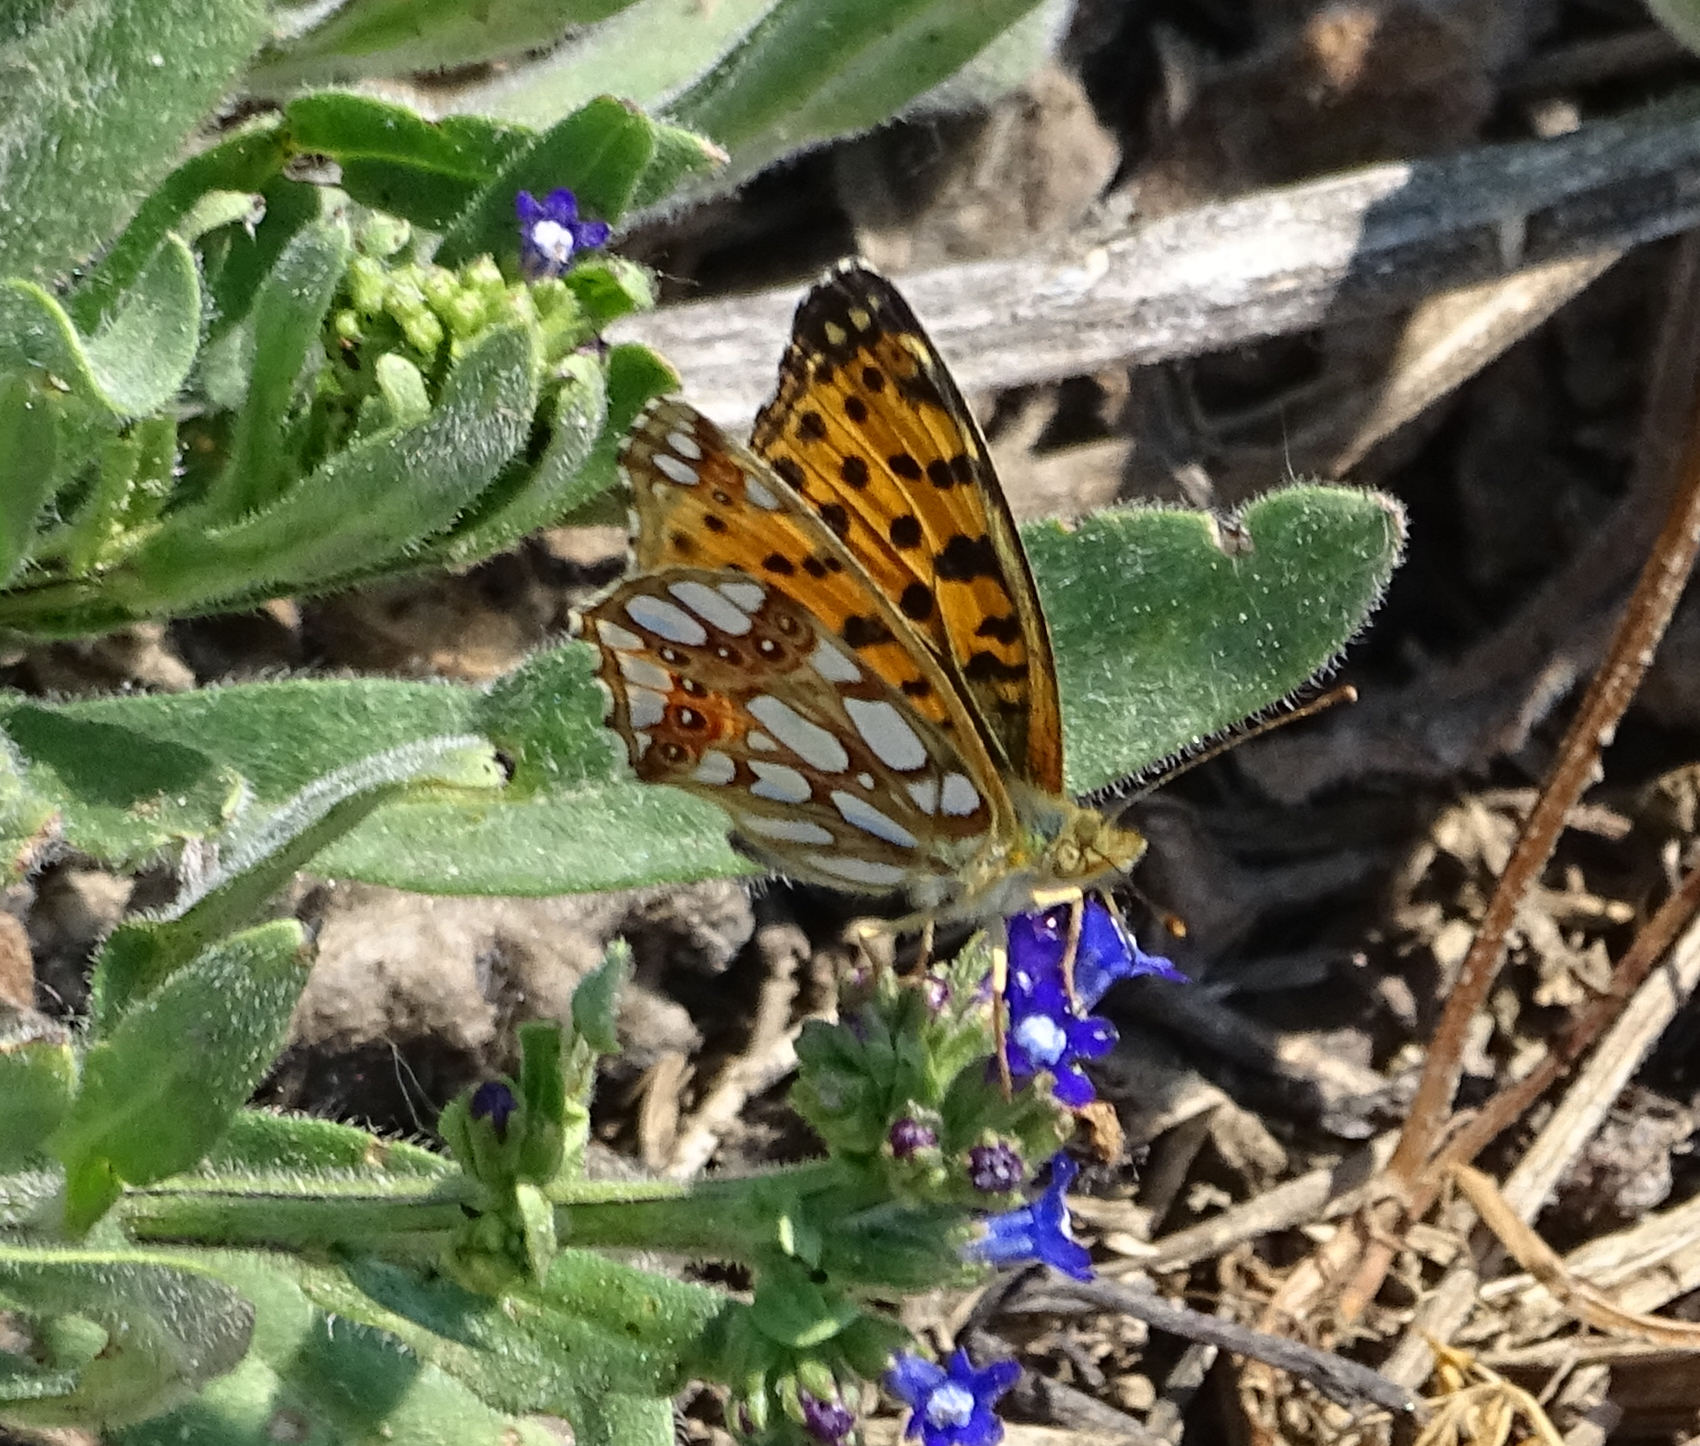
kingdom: Animalia
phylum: Arthropoda
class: Insecta
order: Lepidoptera
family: Nymphalidae
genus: Issoria
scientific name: Issoria lathonia
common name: Queen of spain fritillary
